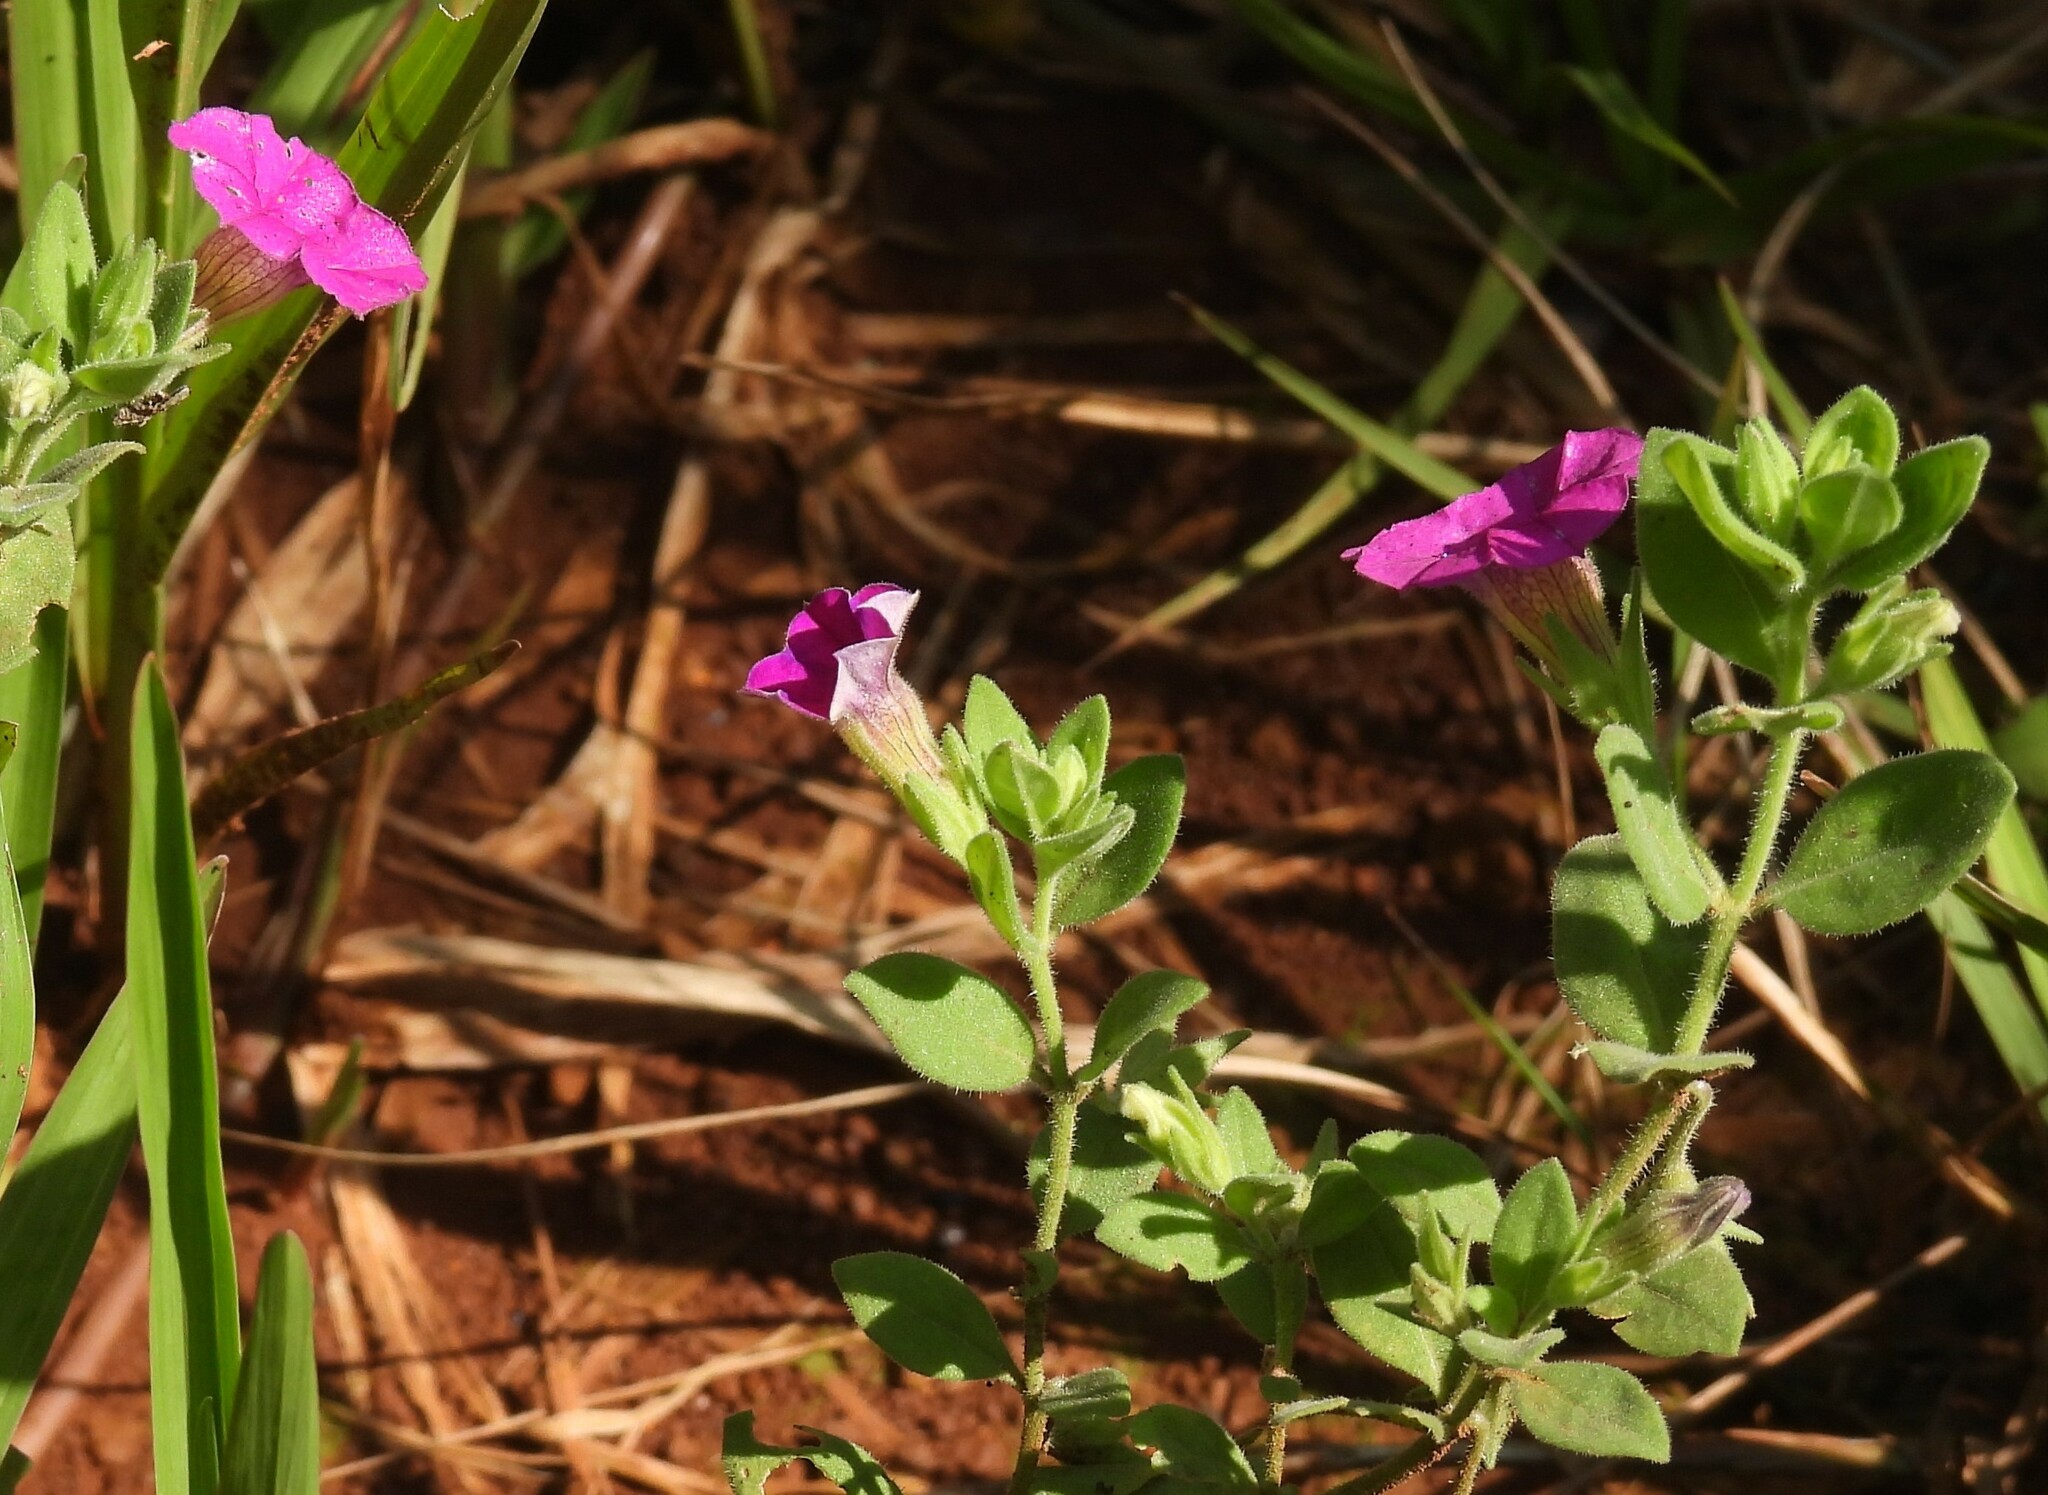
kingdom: Plantae
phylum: Tracheophyta
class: Magnoliopsida
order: Solanales
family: Solanaceae
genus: Calibrachoa
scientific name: Calibrachoa linoides
